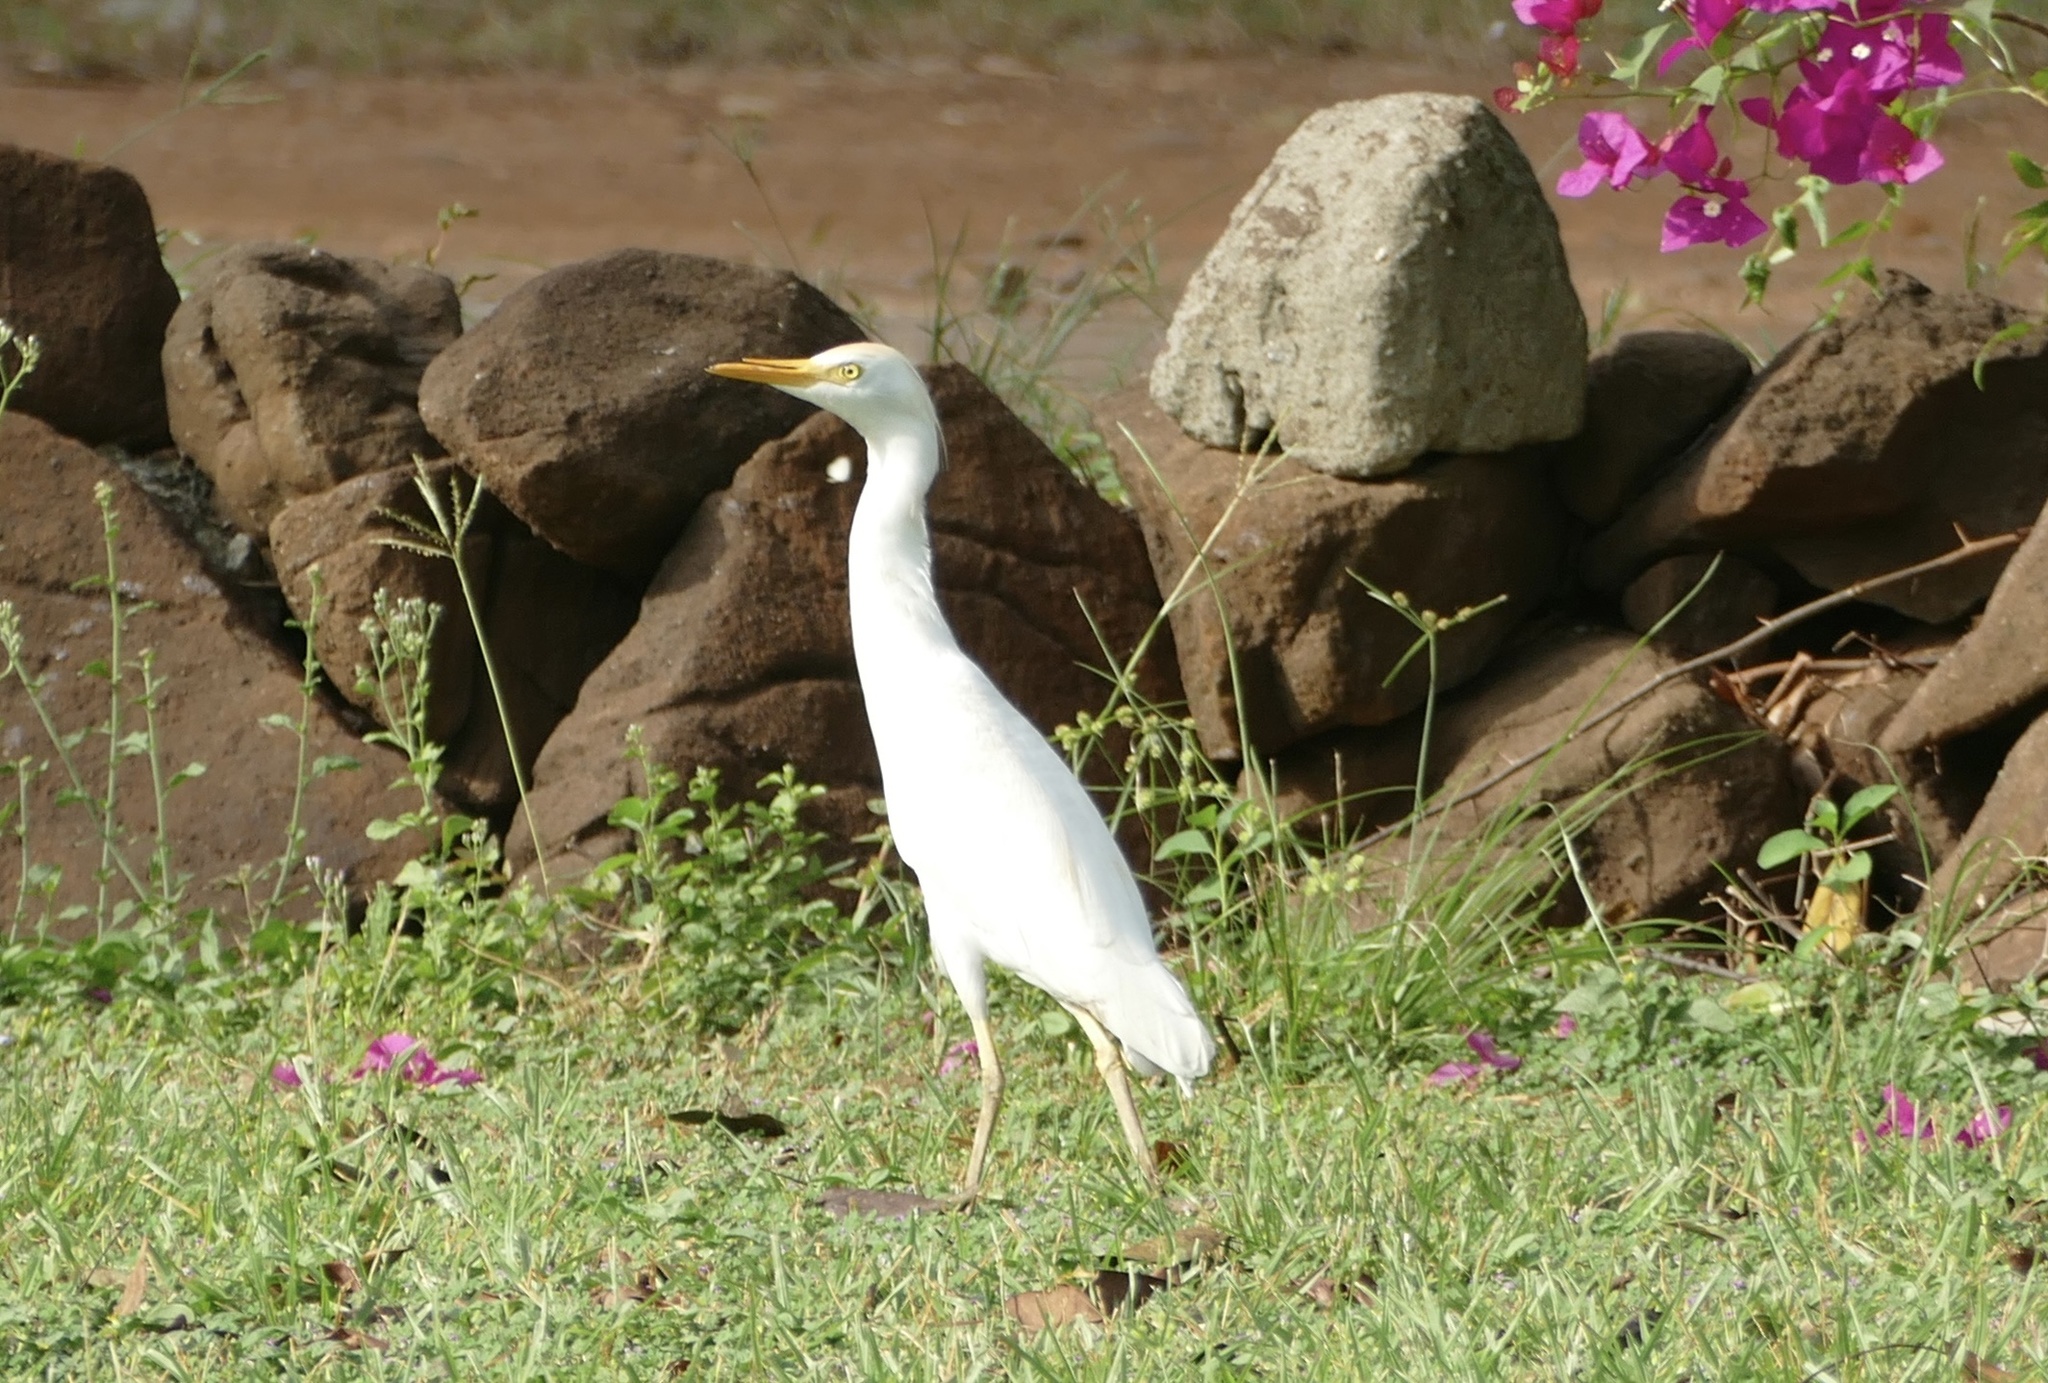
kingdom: Animalia
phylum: Chordata
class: Aves
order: Pelecaniformes
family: Ardeidae
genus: Bubulcus
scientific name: Bubulcus ibis
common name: Cattle egret
